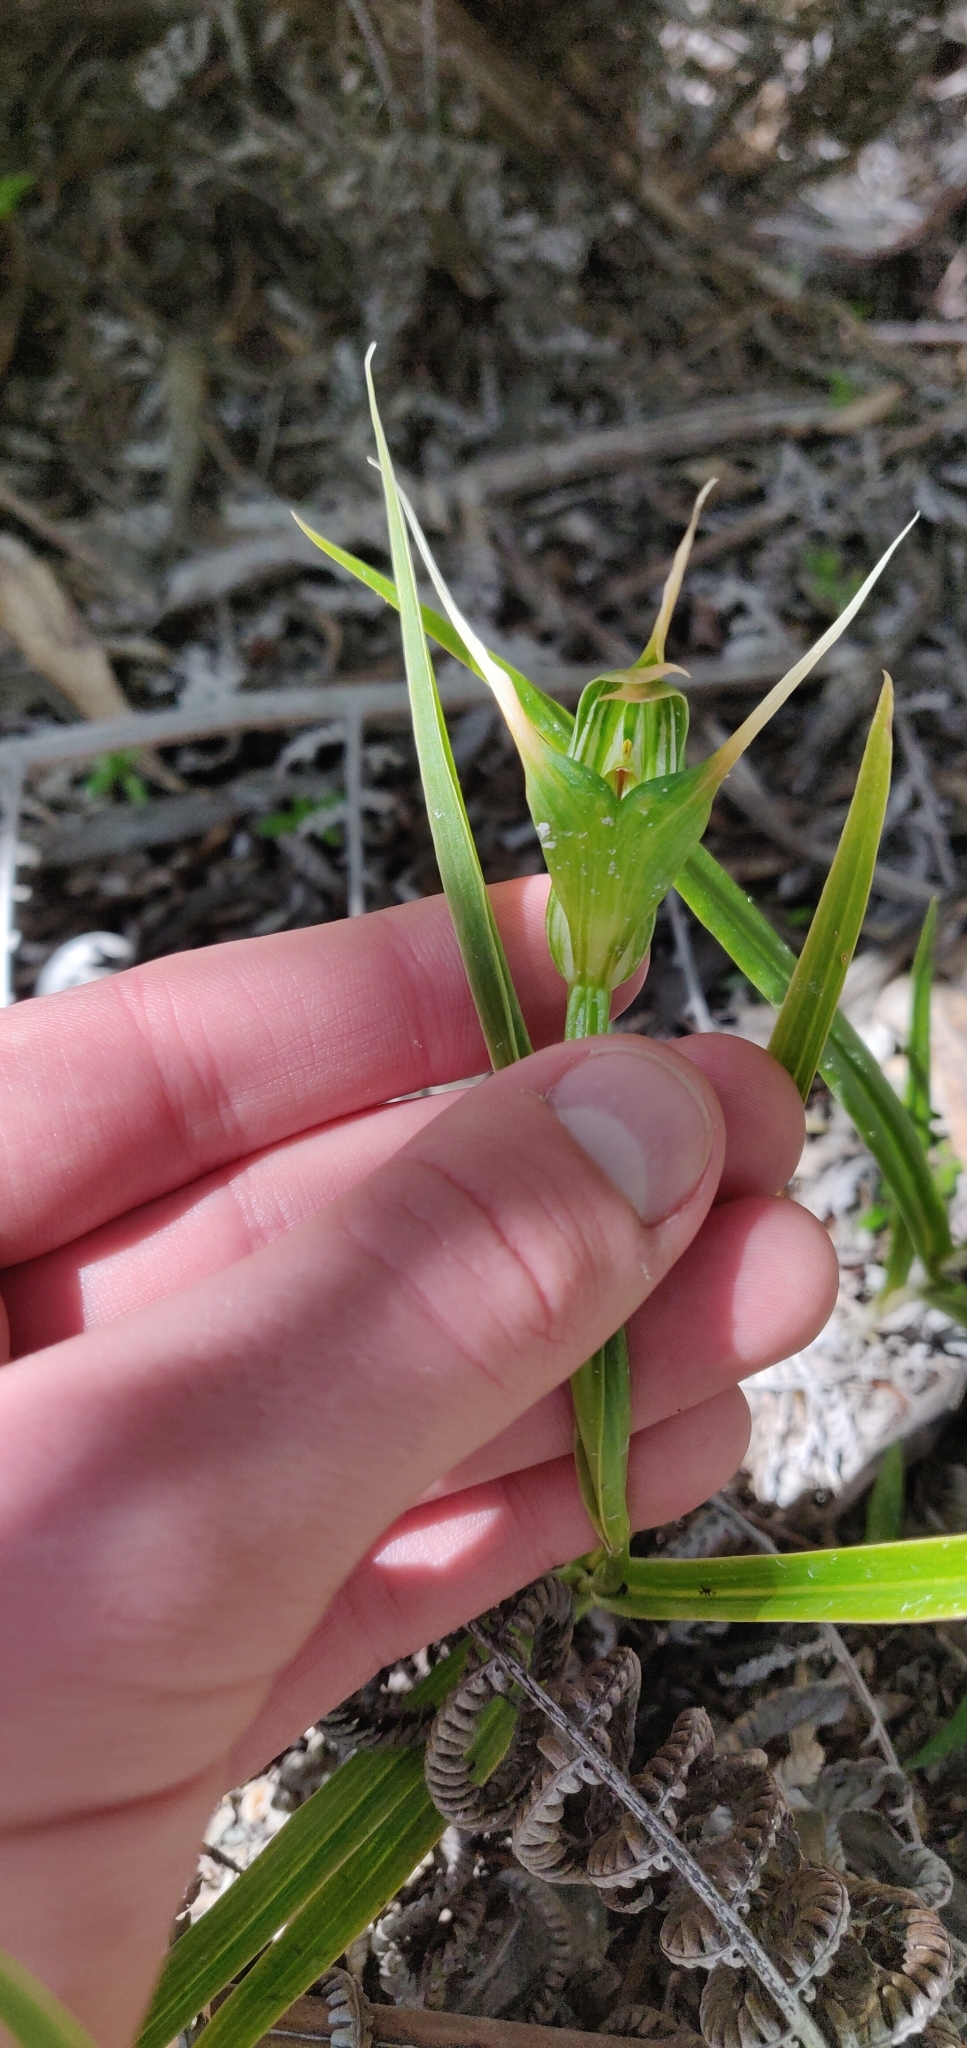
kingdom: Plantae
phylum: Tracheophyta
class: Liliopsida
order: Asparagales
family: Orchidaceae
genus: Pterostylis
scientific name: Pterostylis banksii
